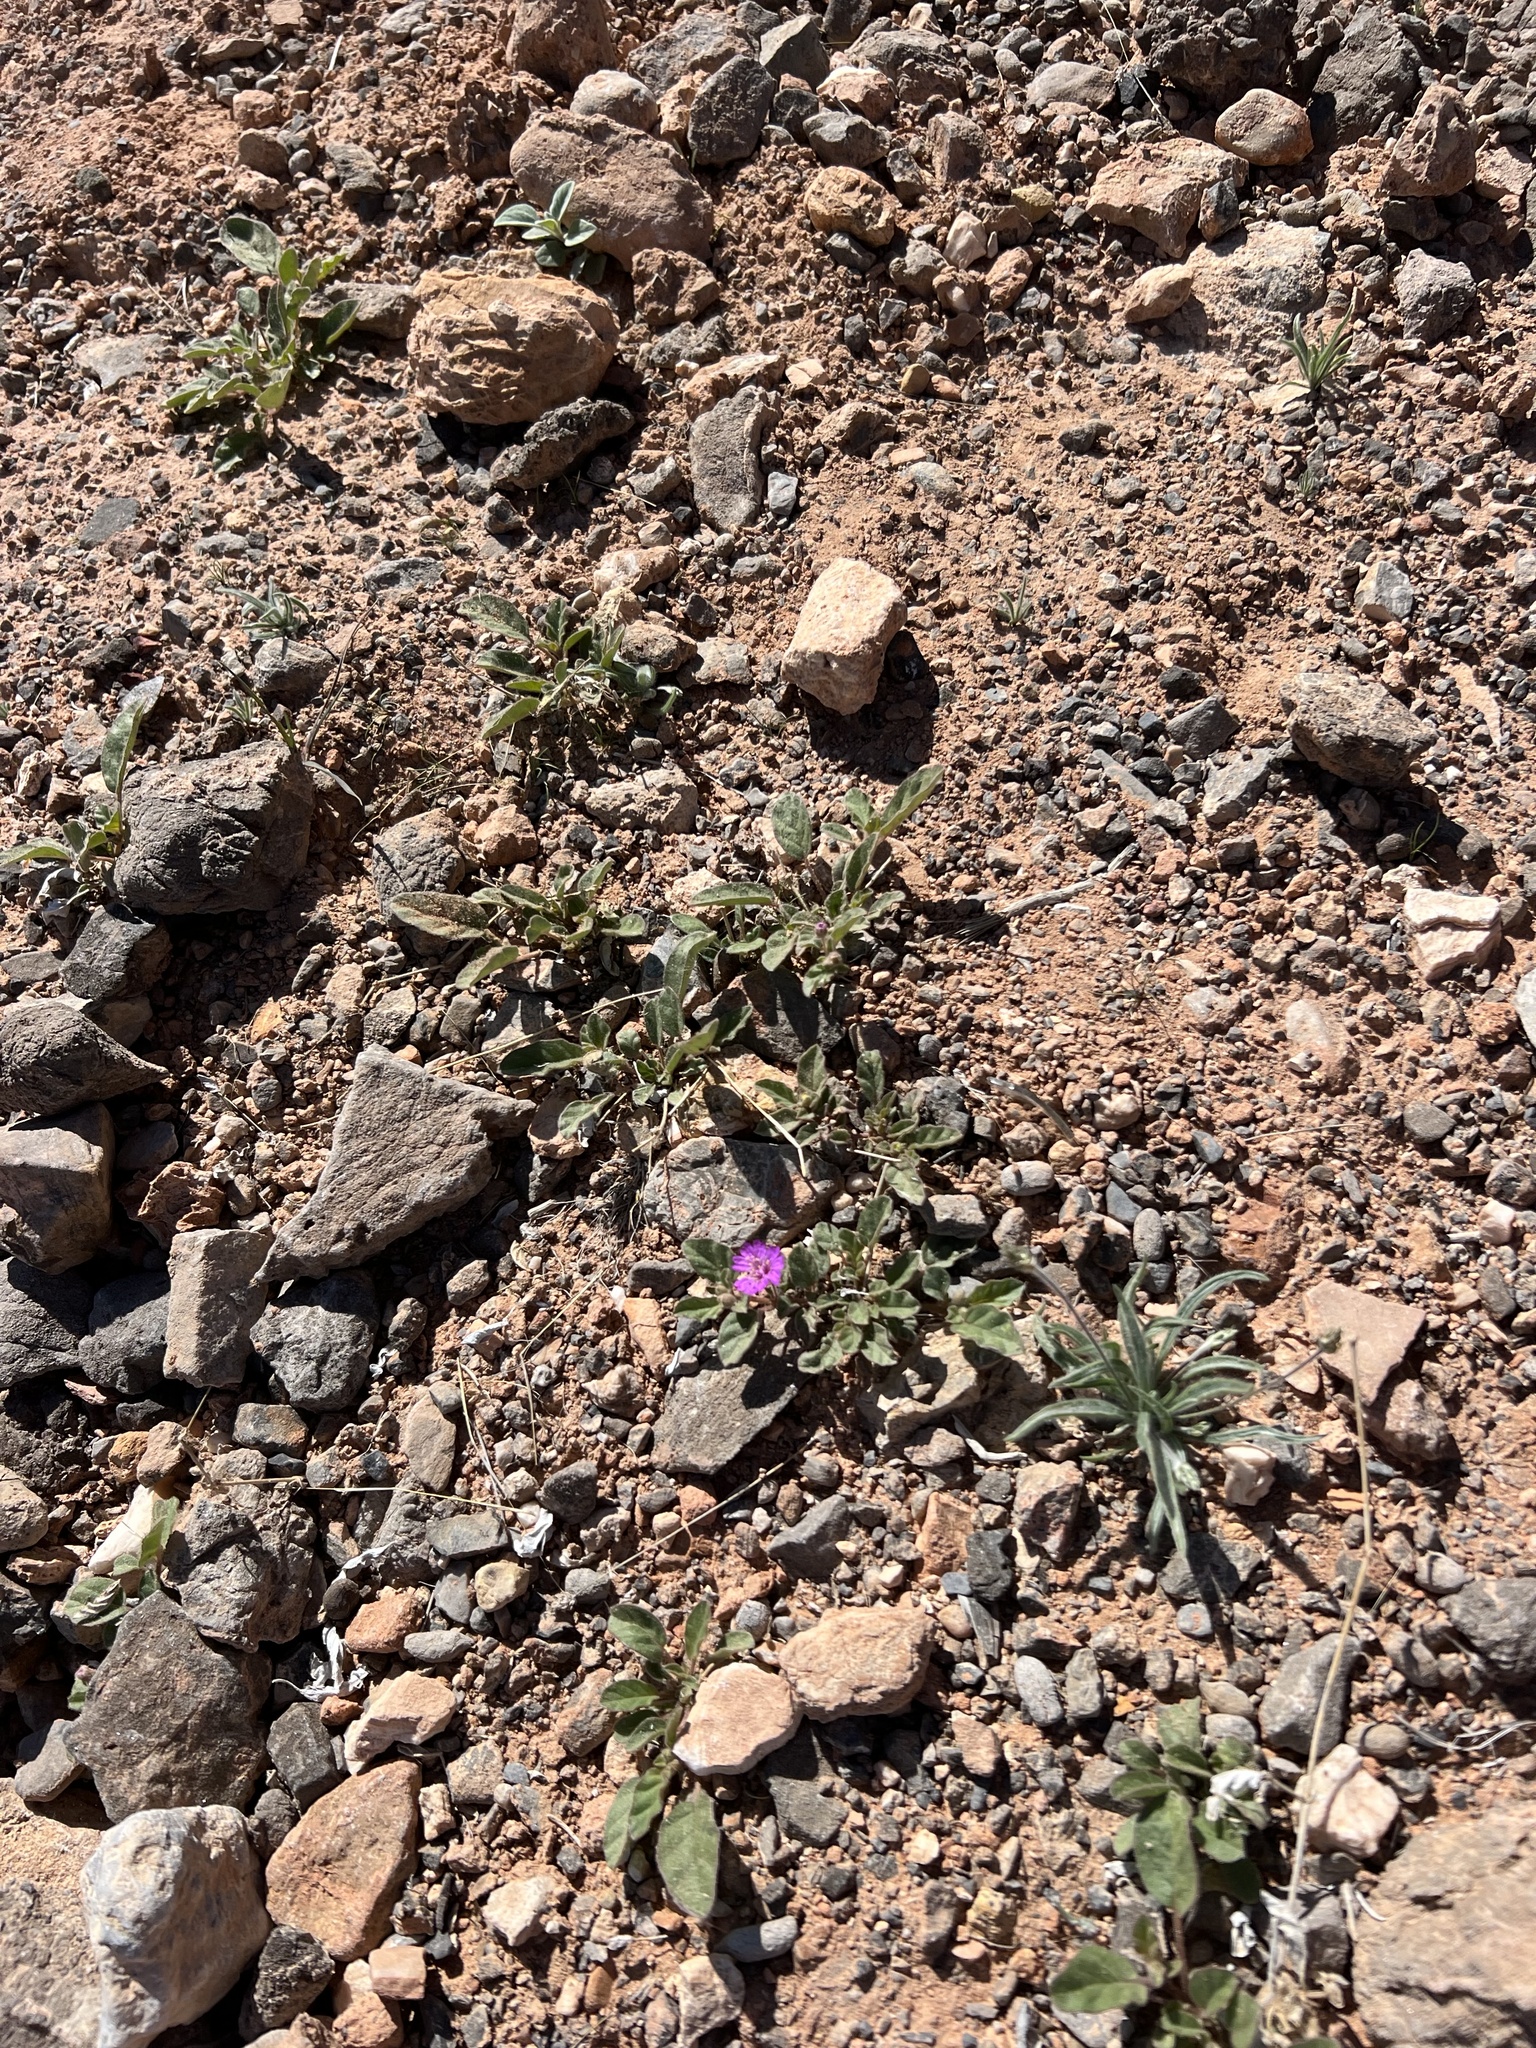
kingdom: Plantae
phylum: Tracheophyta
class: Magnoliopsida
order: Caryophyllales
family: Nyctaginaceae
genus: Allionia
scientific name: Allionia incarnata
